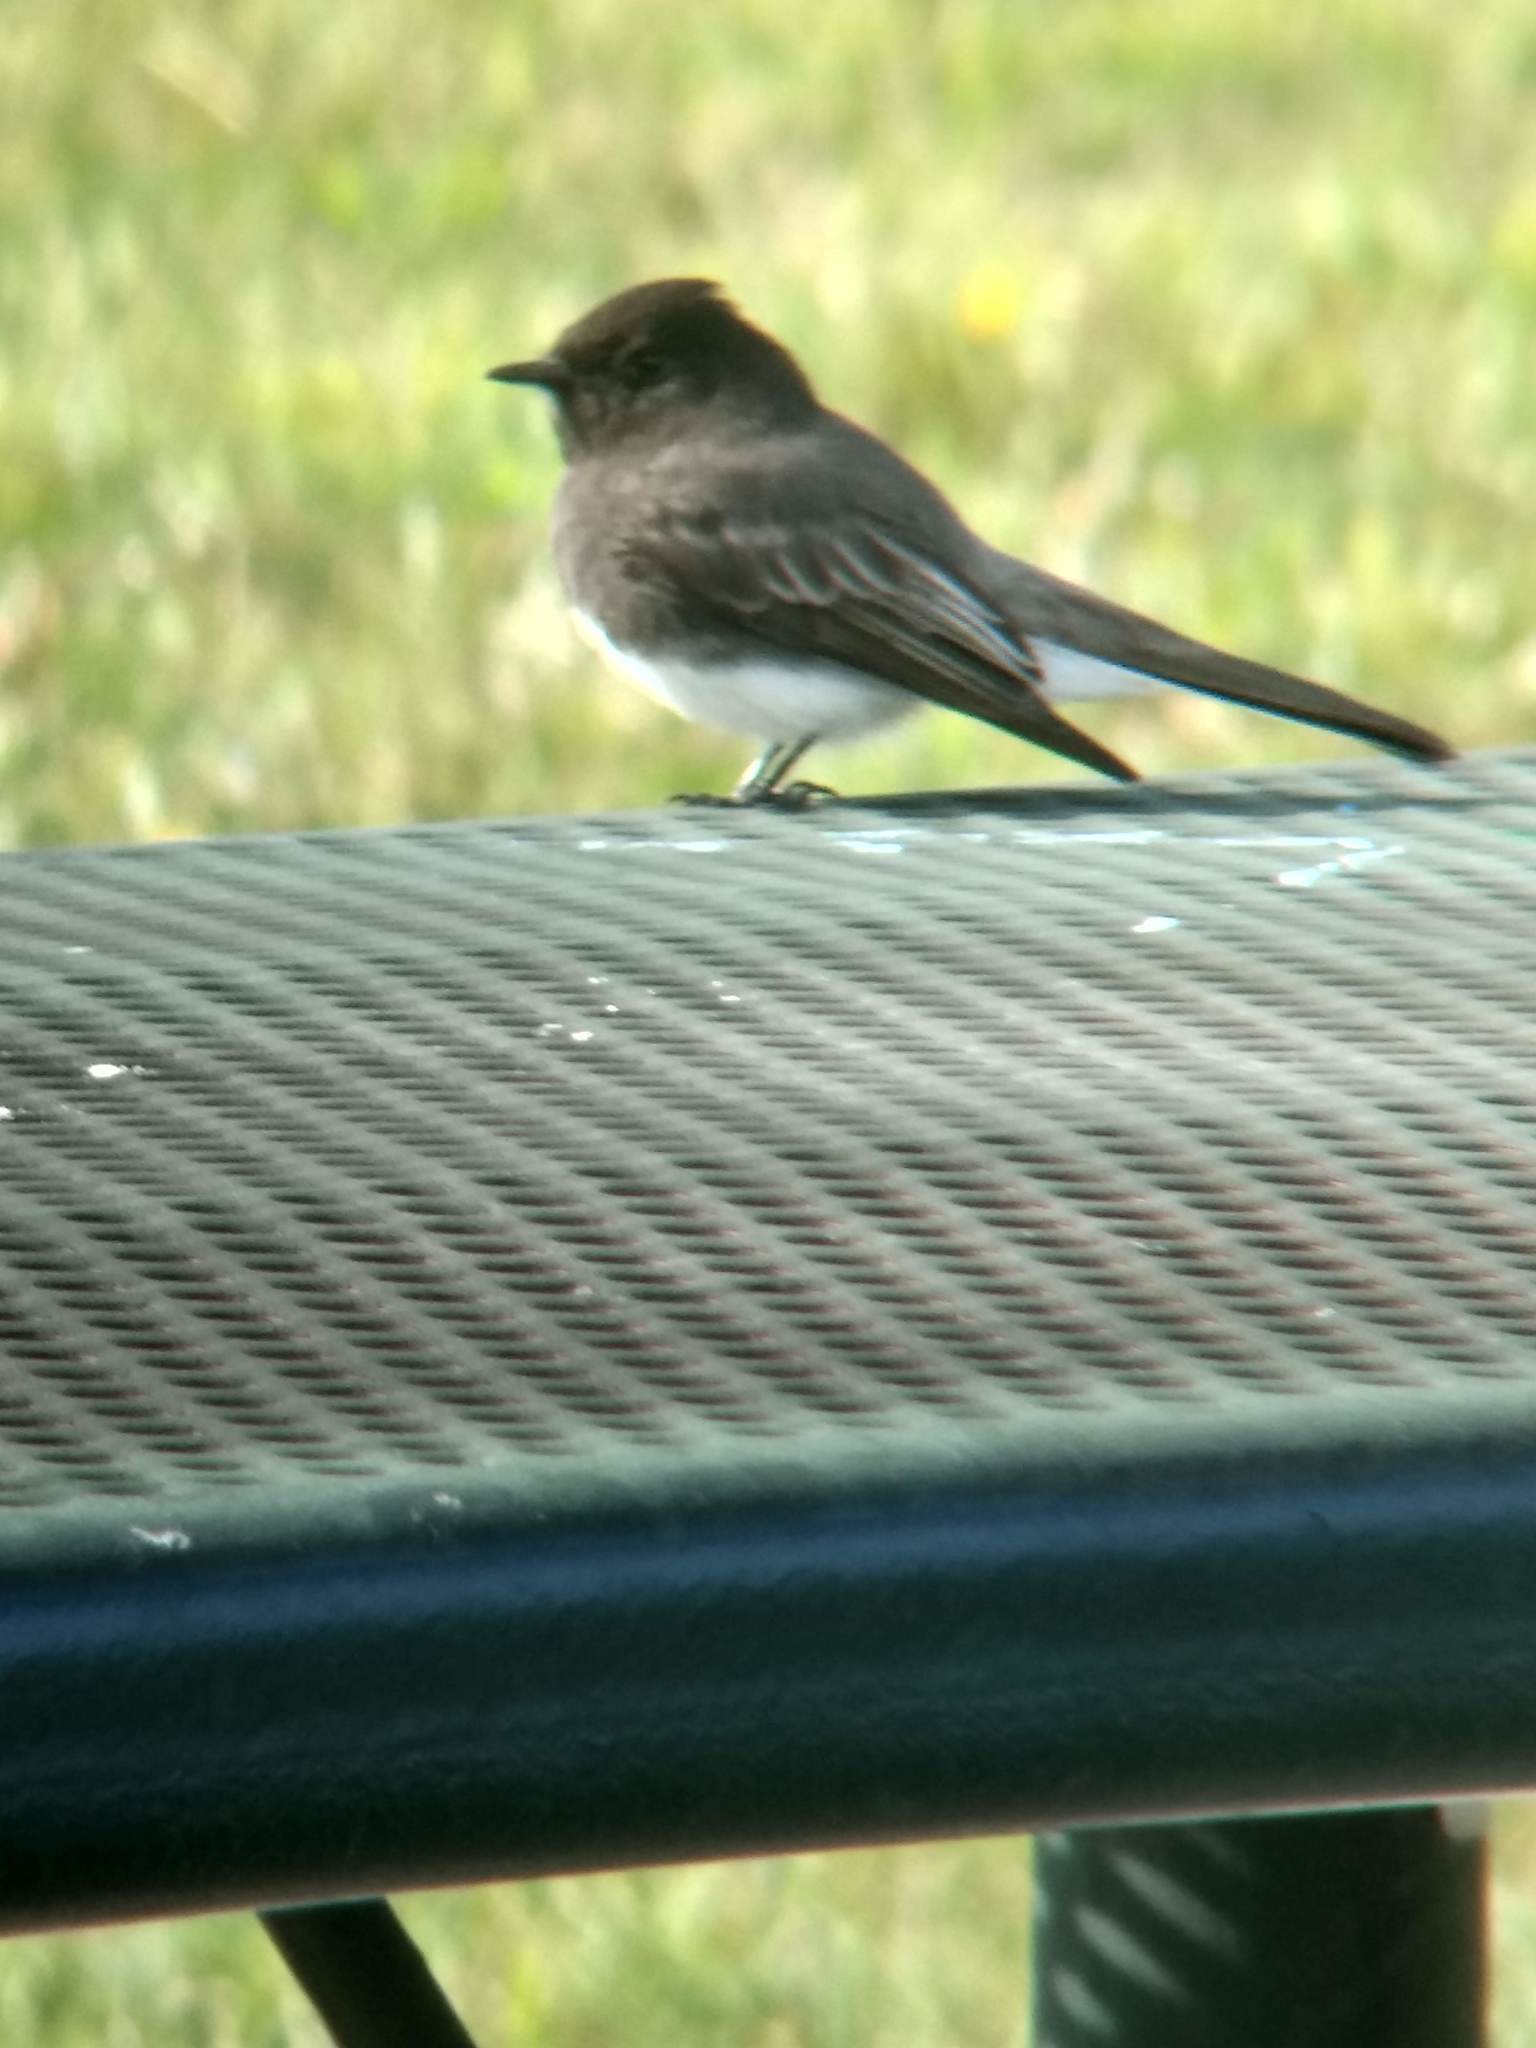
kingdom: Animalia
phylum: Chordata
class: Aves
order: Passeriformes
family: Tyrannidae
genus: Sayornis
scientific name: Sayornis nigricans
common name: Black phoebe
